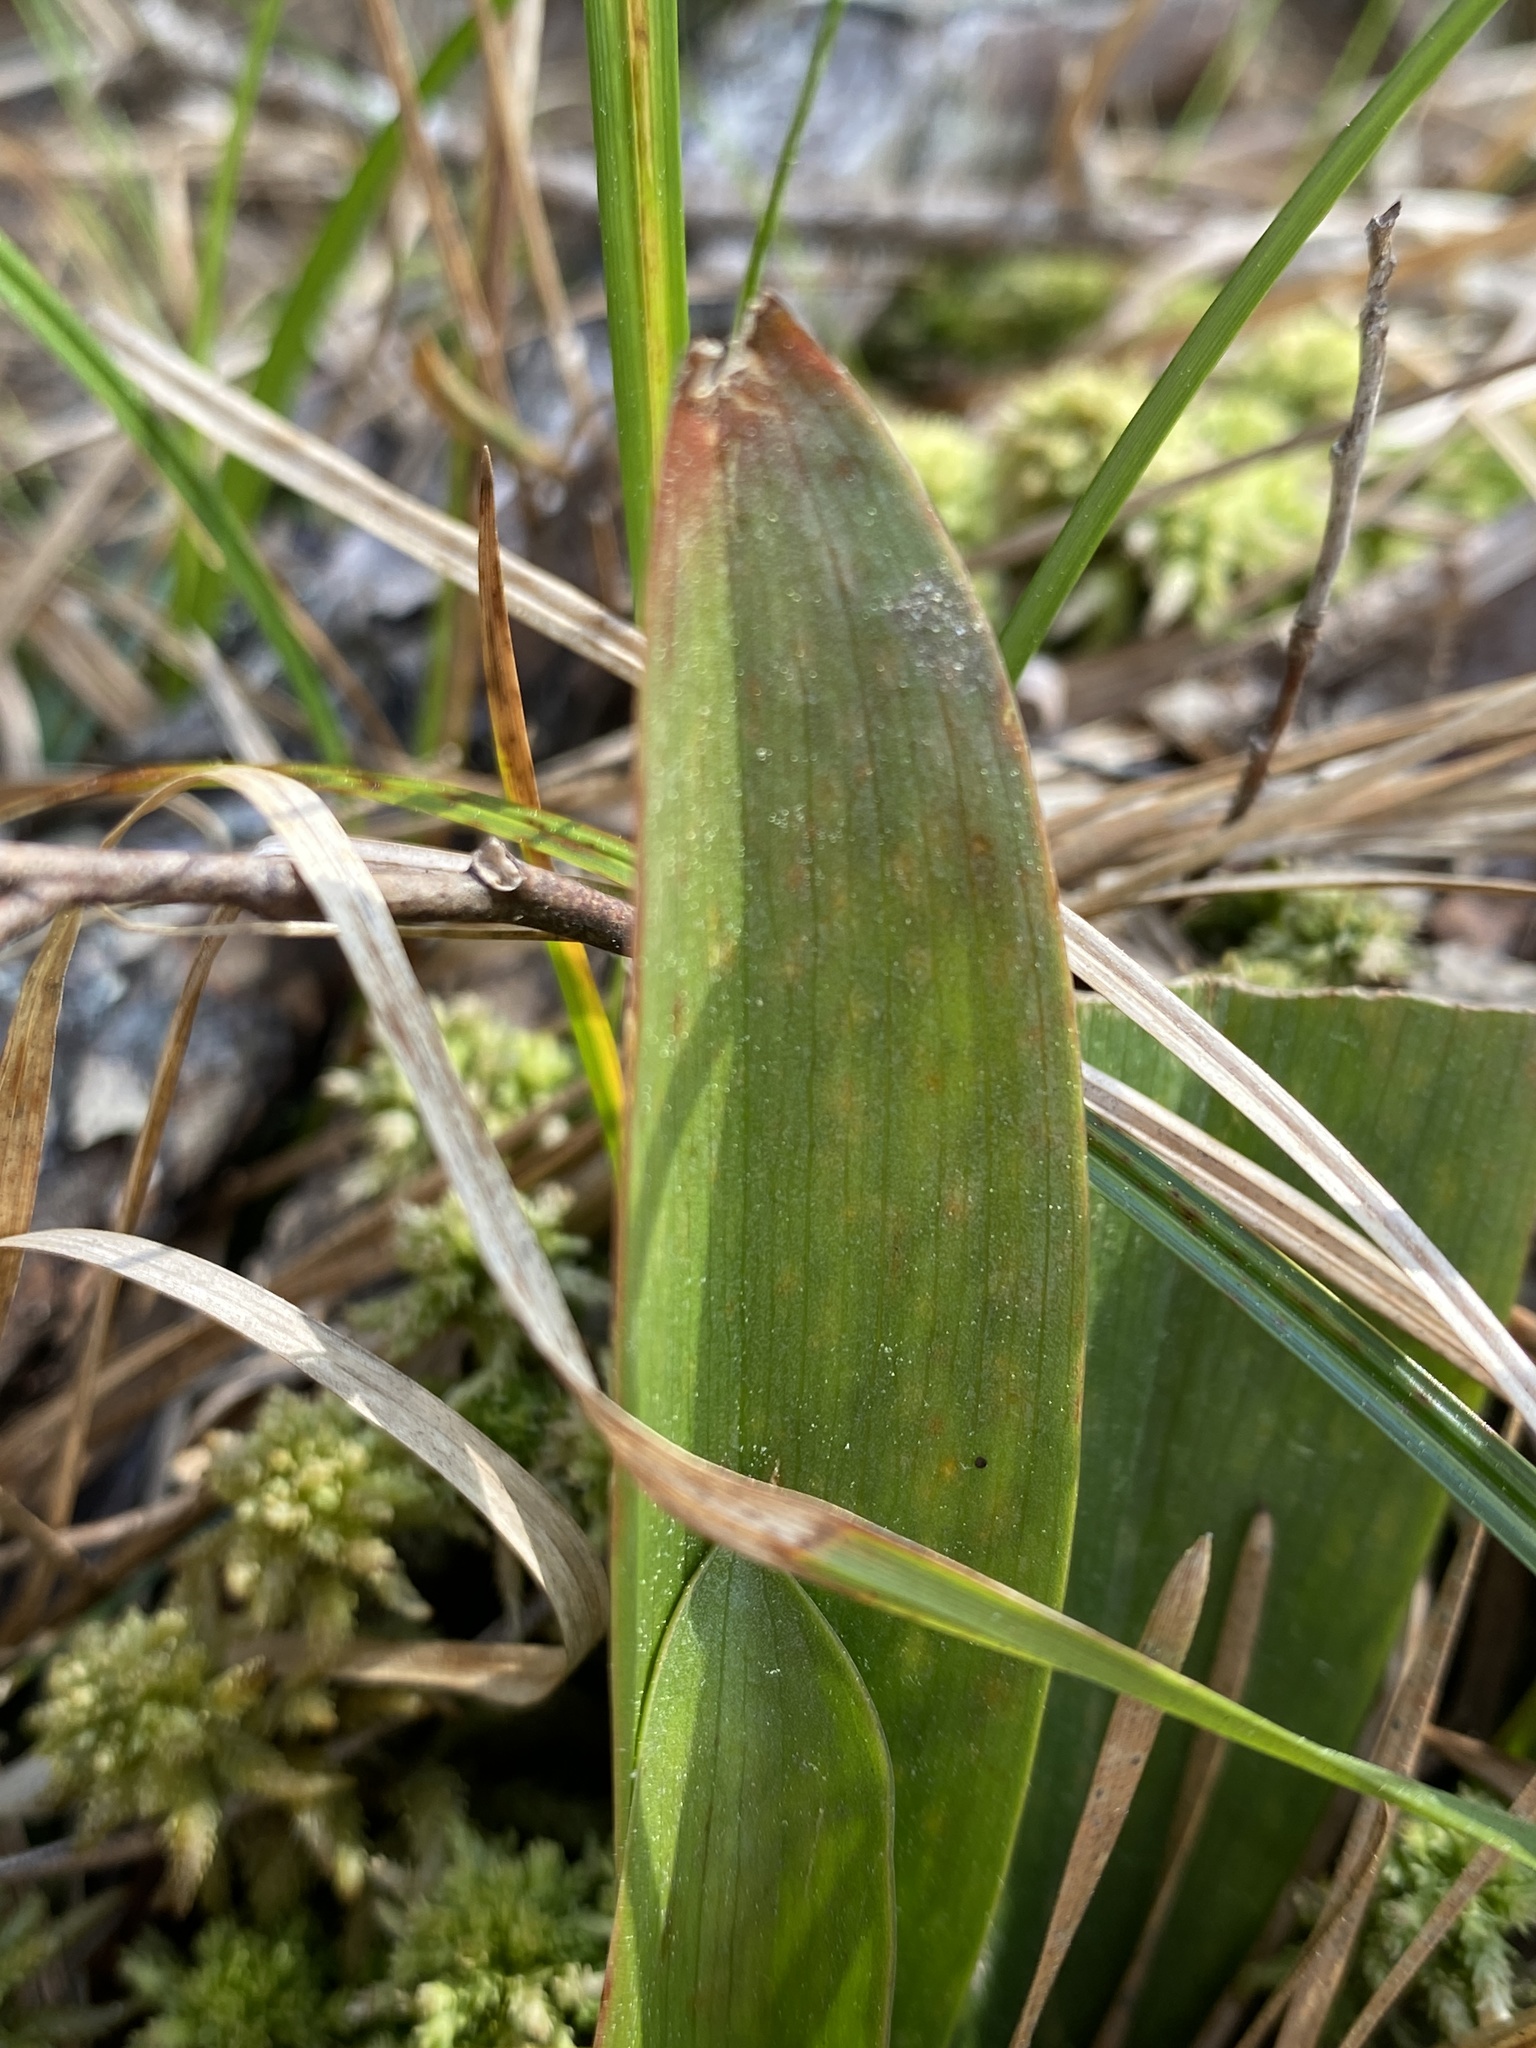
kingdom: Plantae
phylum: Tracheophyta
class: Liliopsida
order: Liliales
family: Melanthiaceae
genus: Helonias
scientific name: Helonias bullata
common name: Swamp-pink
